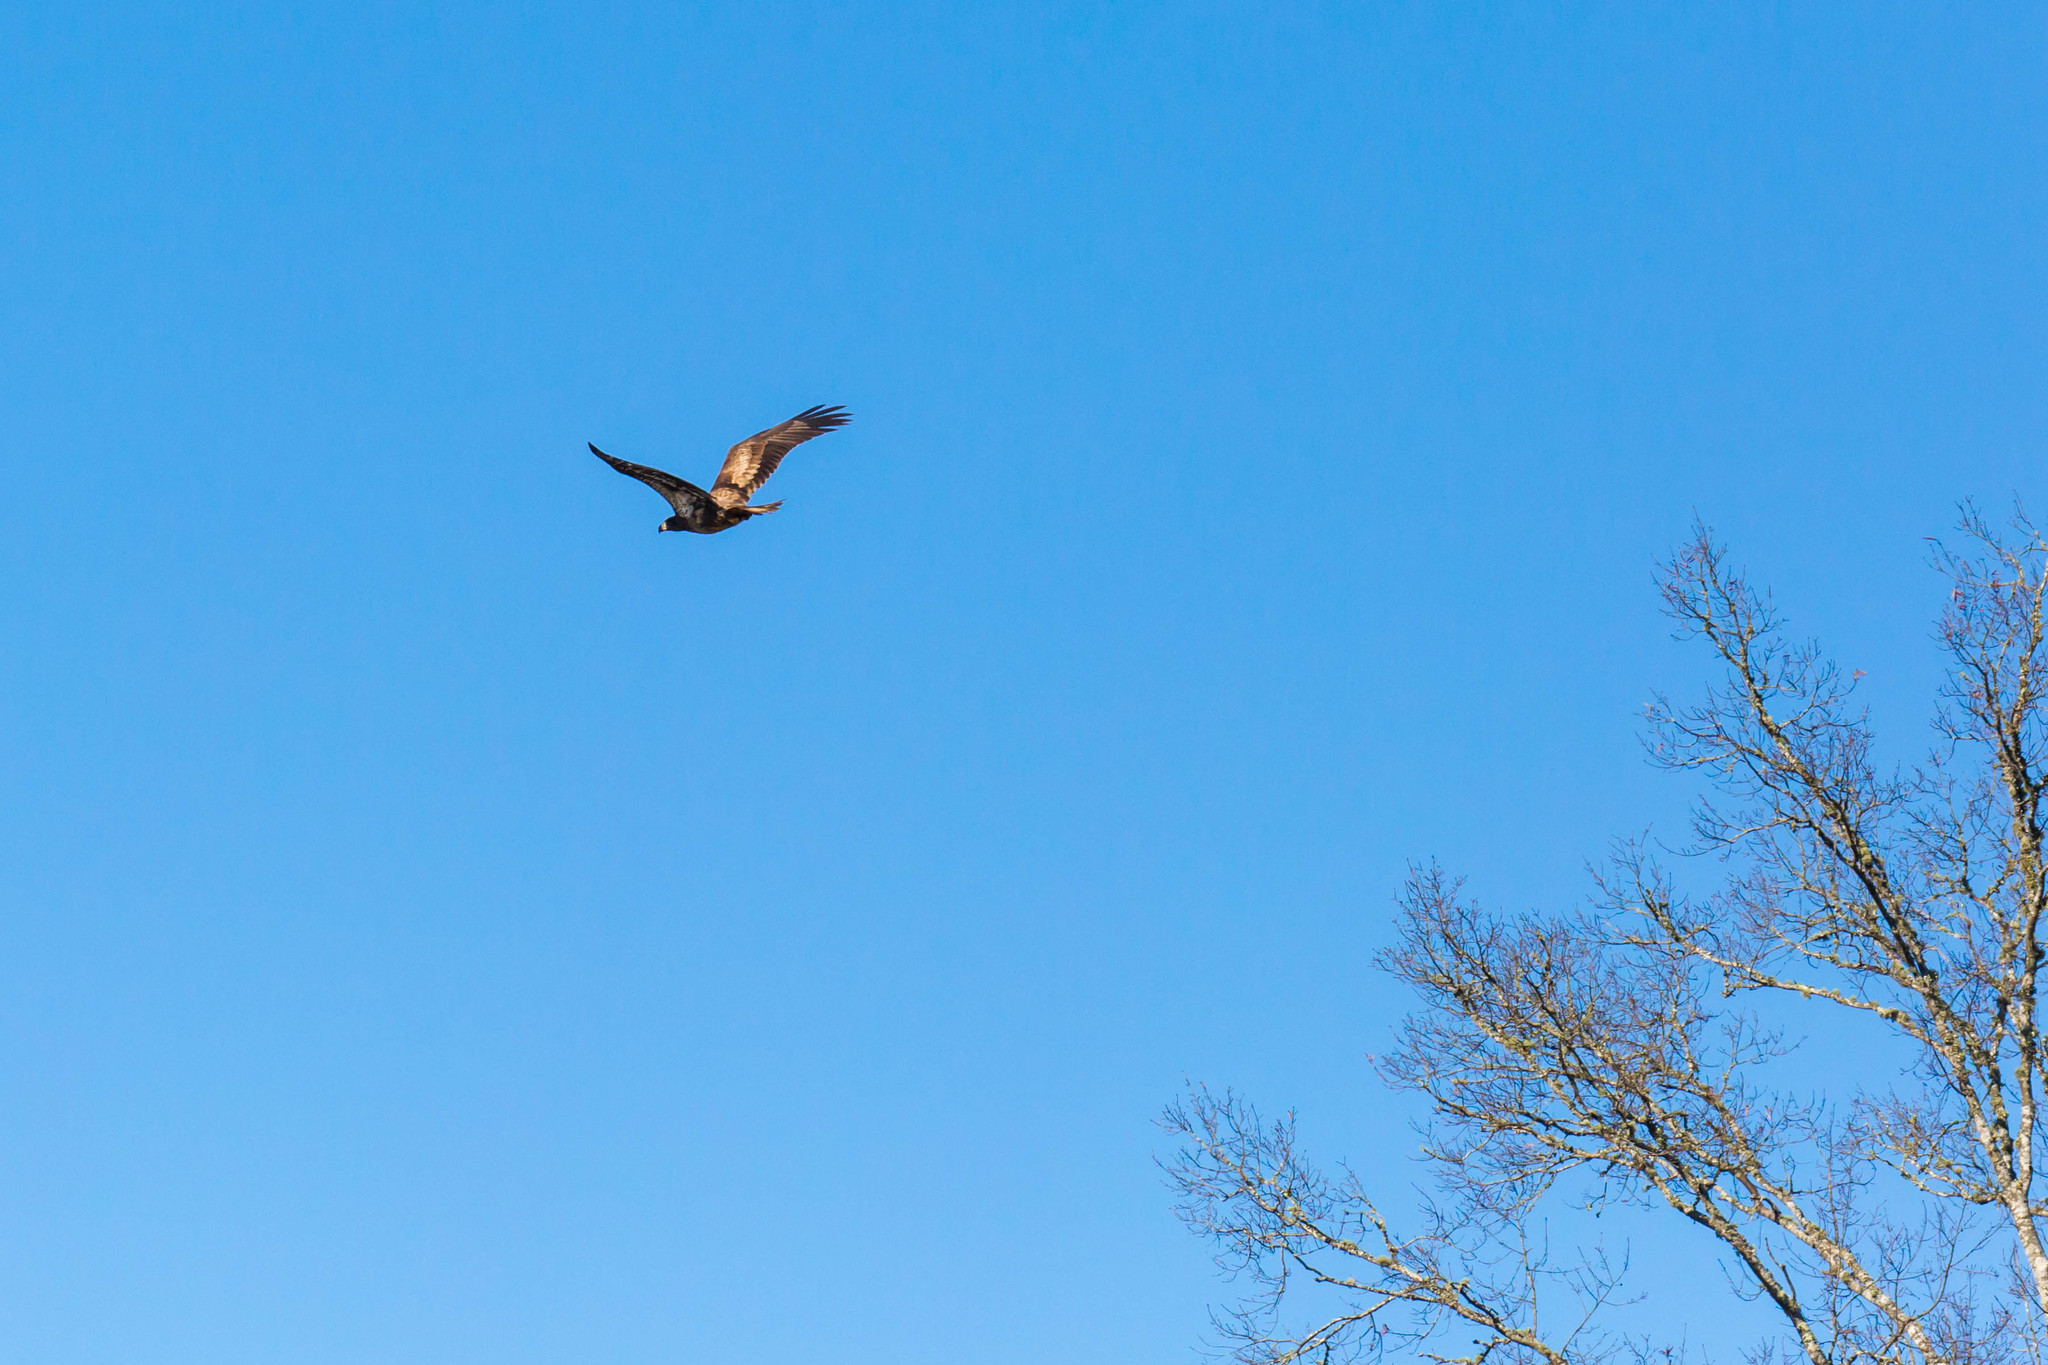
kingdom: Animalia
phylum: Chordata
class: Aves
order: Accipitriformes
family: Accipitridae
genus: Haliaeetus
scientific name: Haliaeetus leucocephalus
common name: Bald eagle
